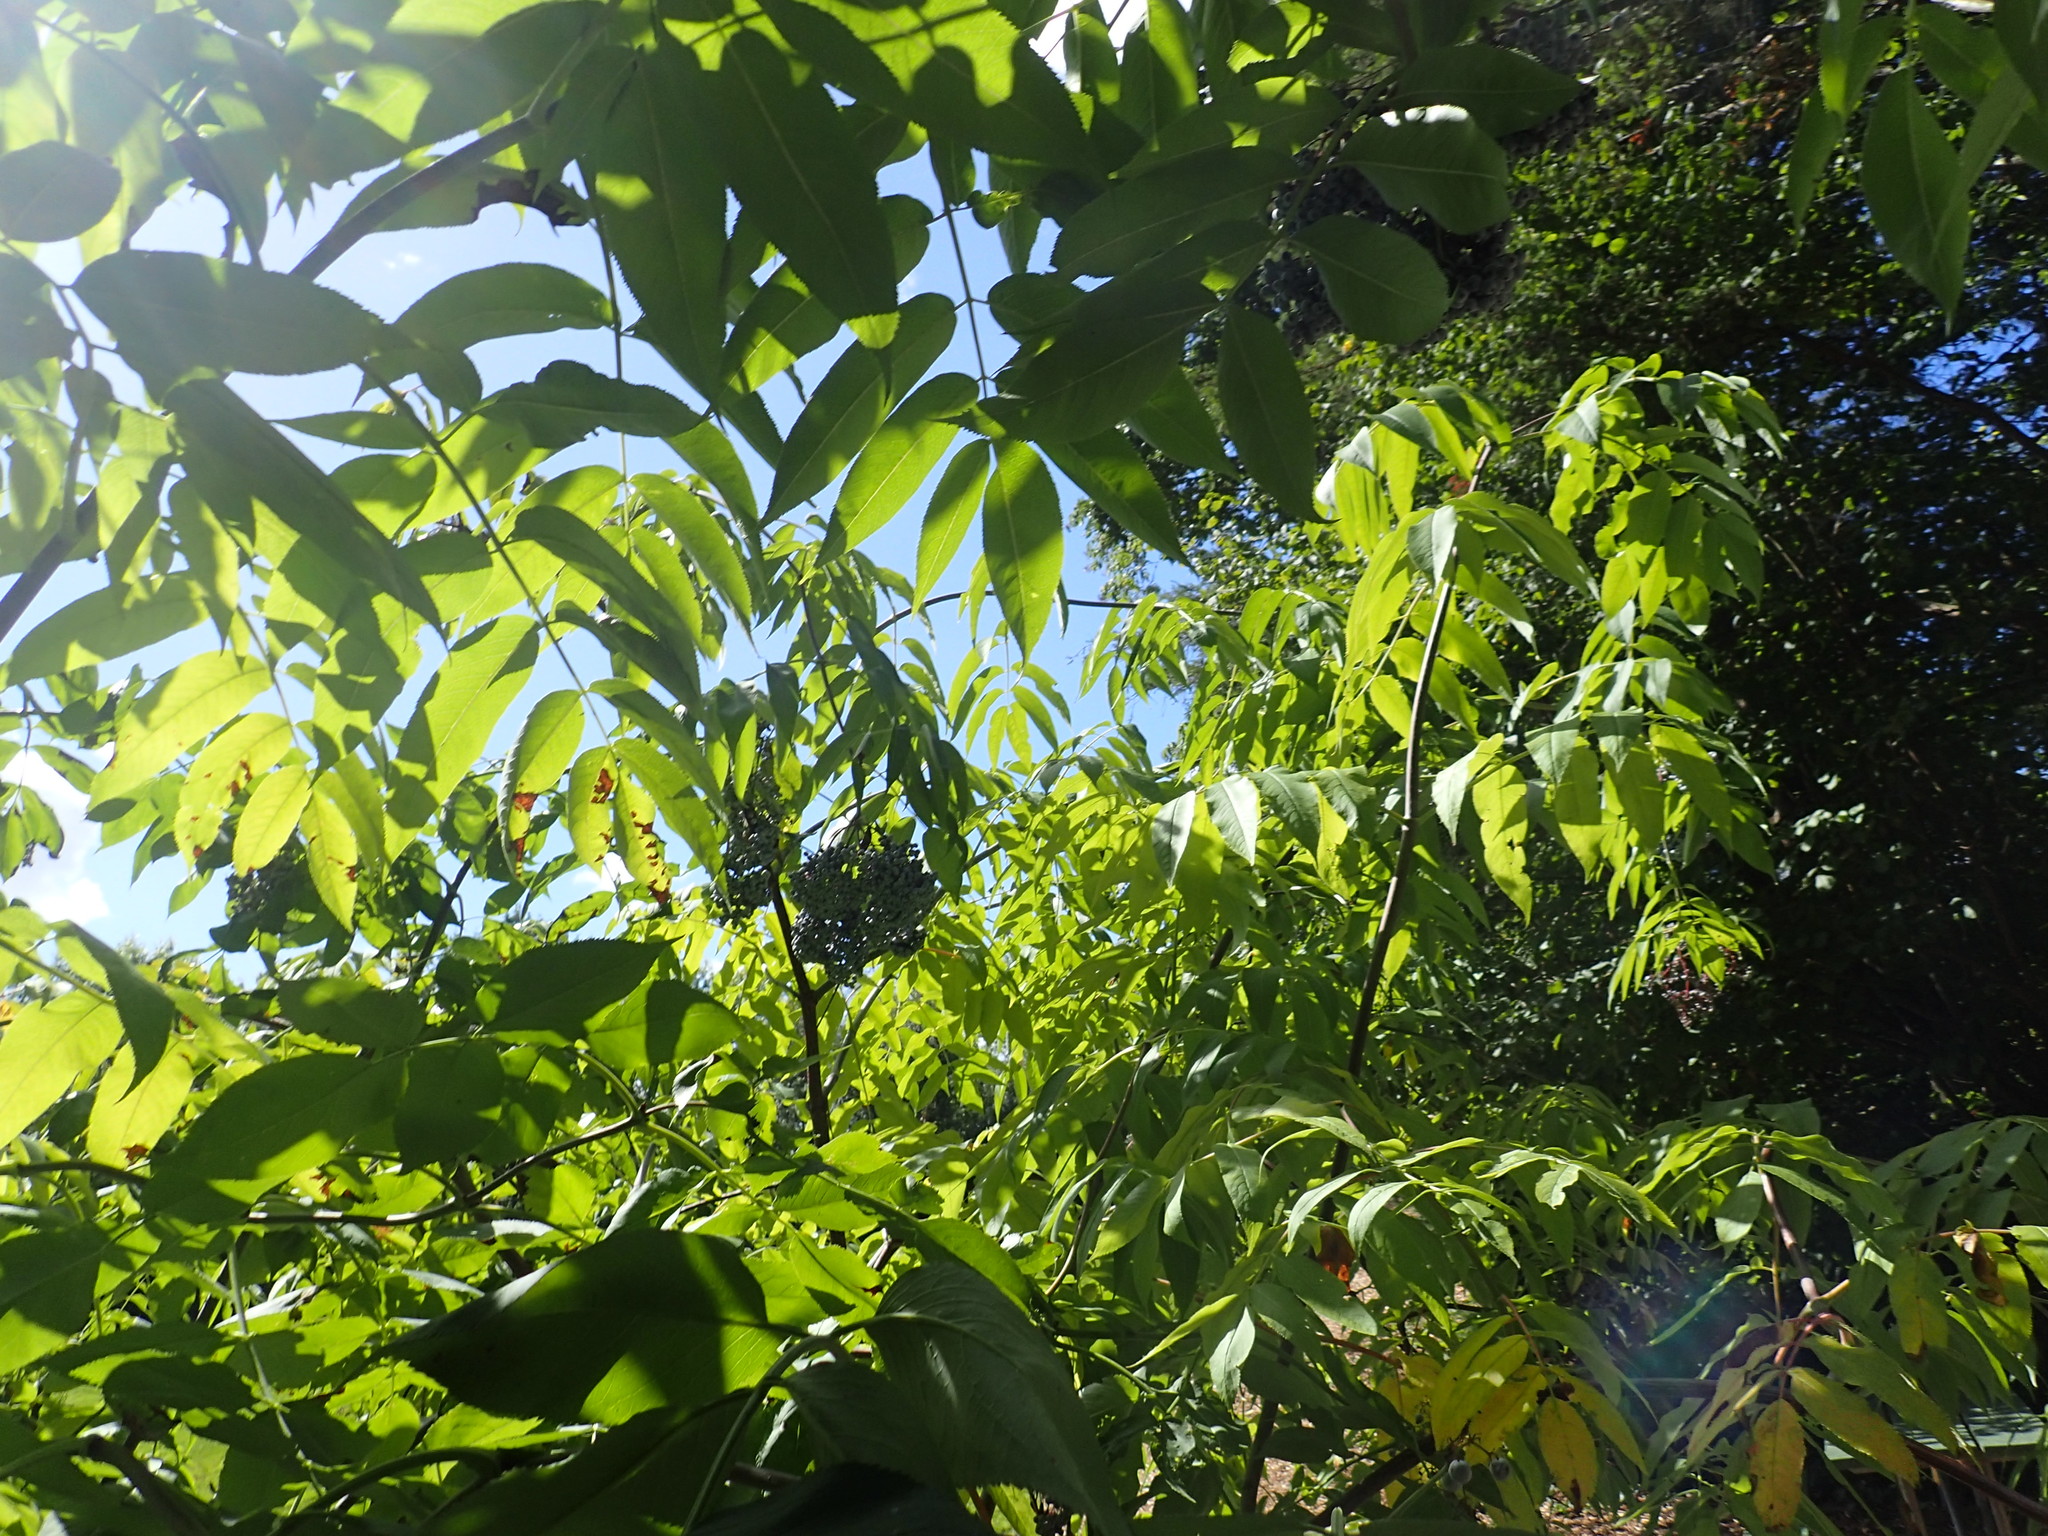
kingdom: Plantae
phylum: Tracheophyta
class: Magnoliopsida
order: Dipsacales
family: Viburnaceae
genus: Sambucus
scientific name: Sambucus cerulea
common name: Blue elder
